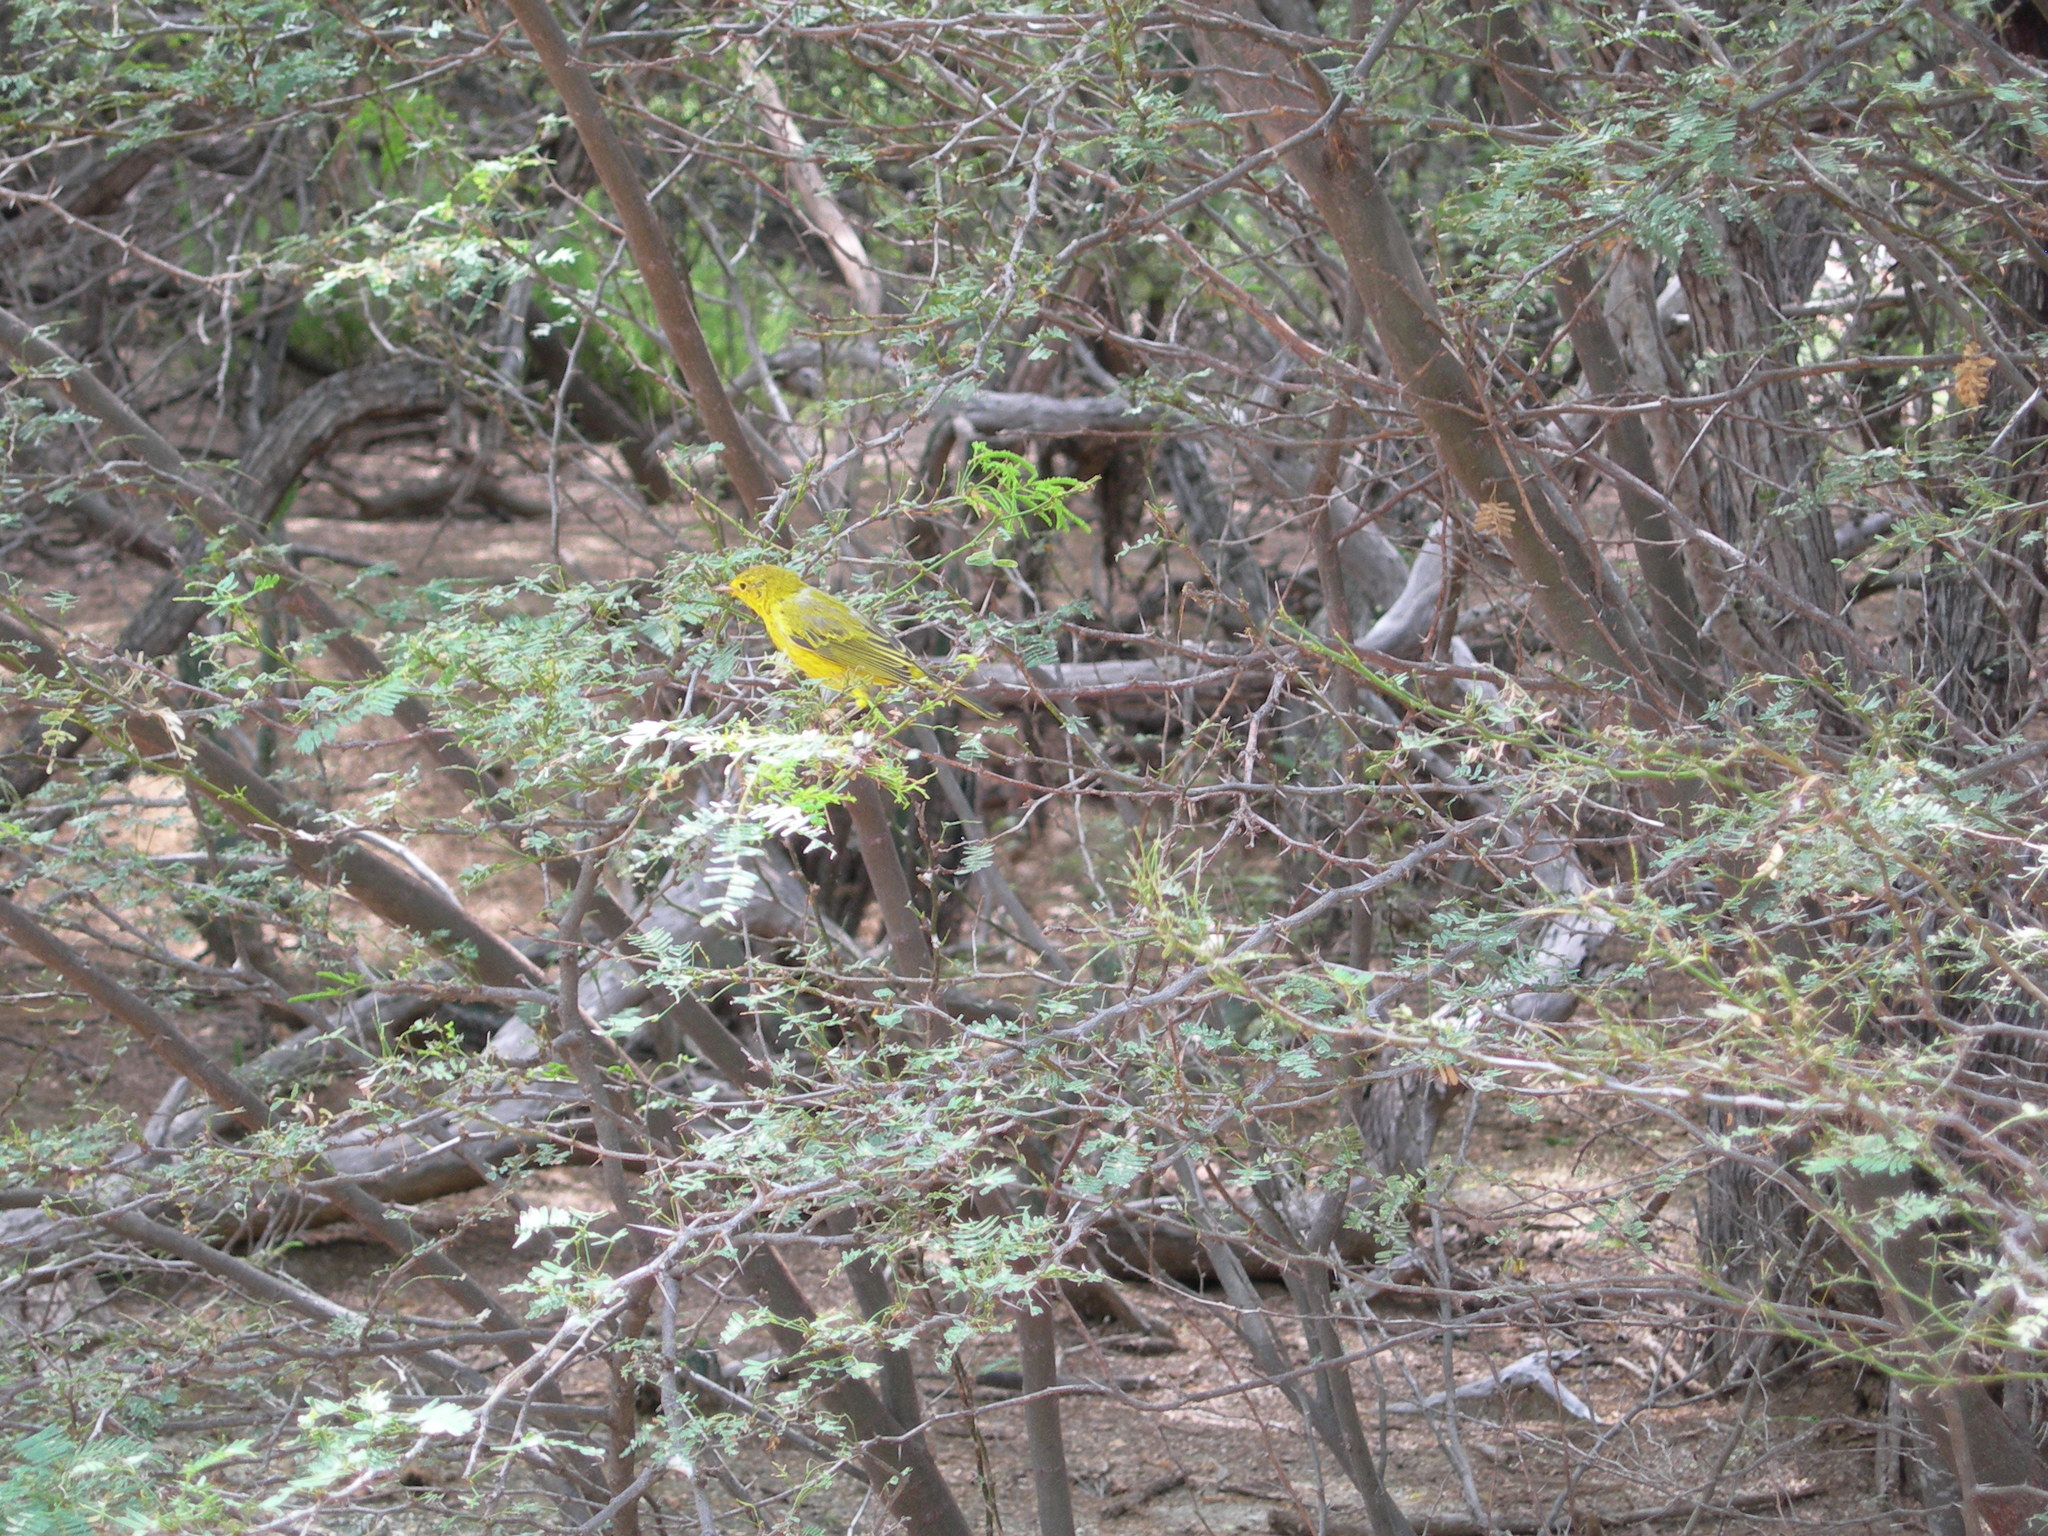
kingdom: Animalia
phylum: Chordata
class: Aves
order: Passeriformes
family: Parulidae
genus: Setophaga
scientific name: Setophaga petechia
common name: Yellow warbler
